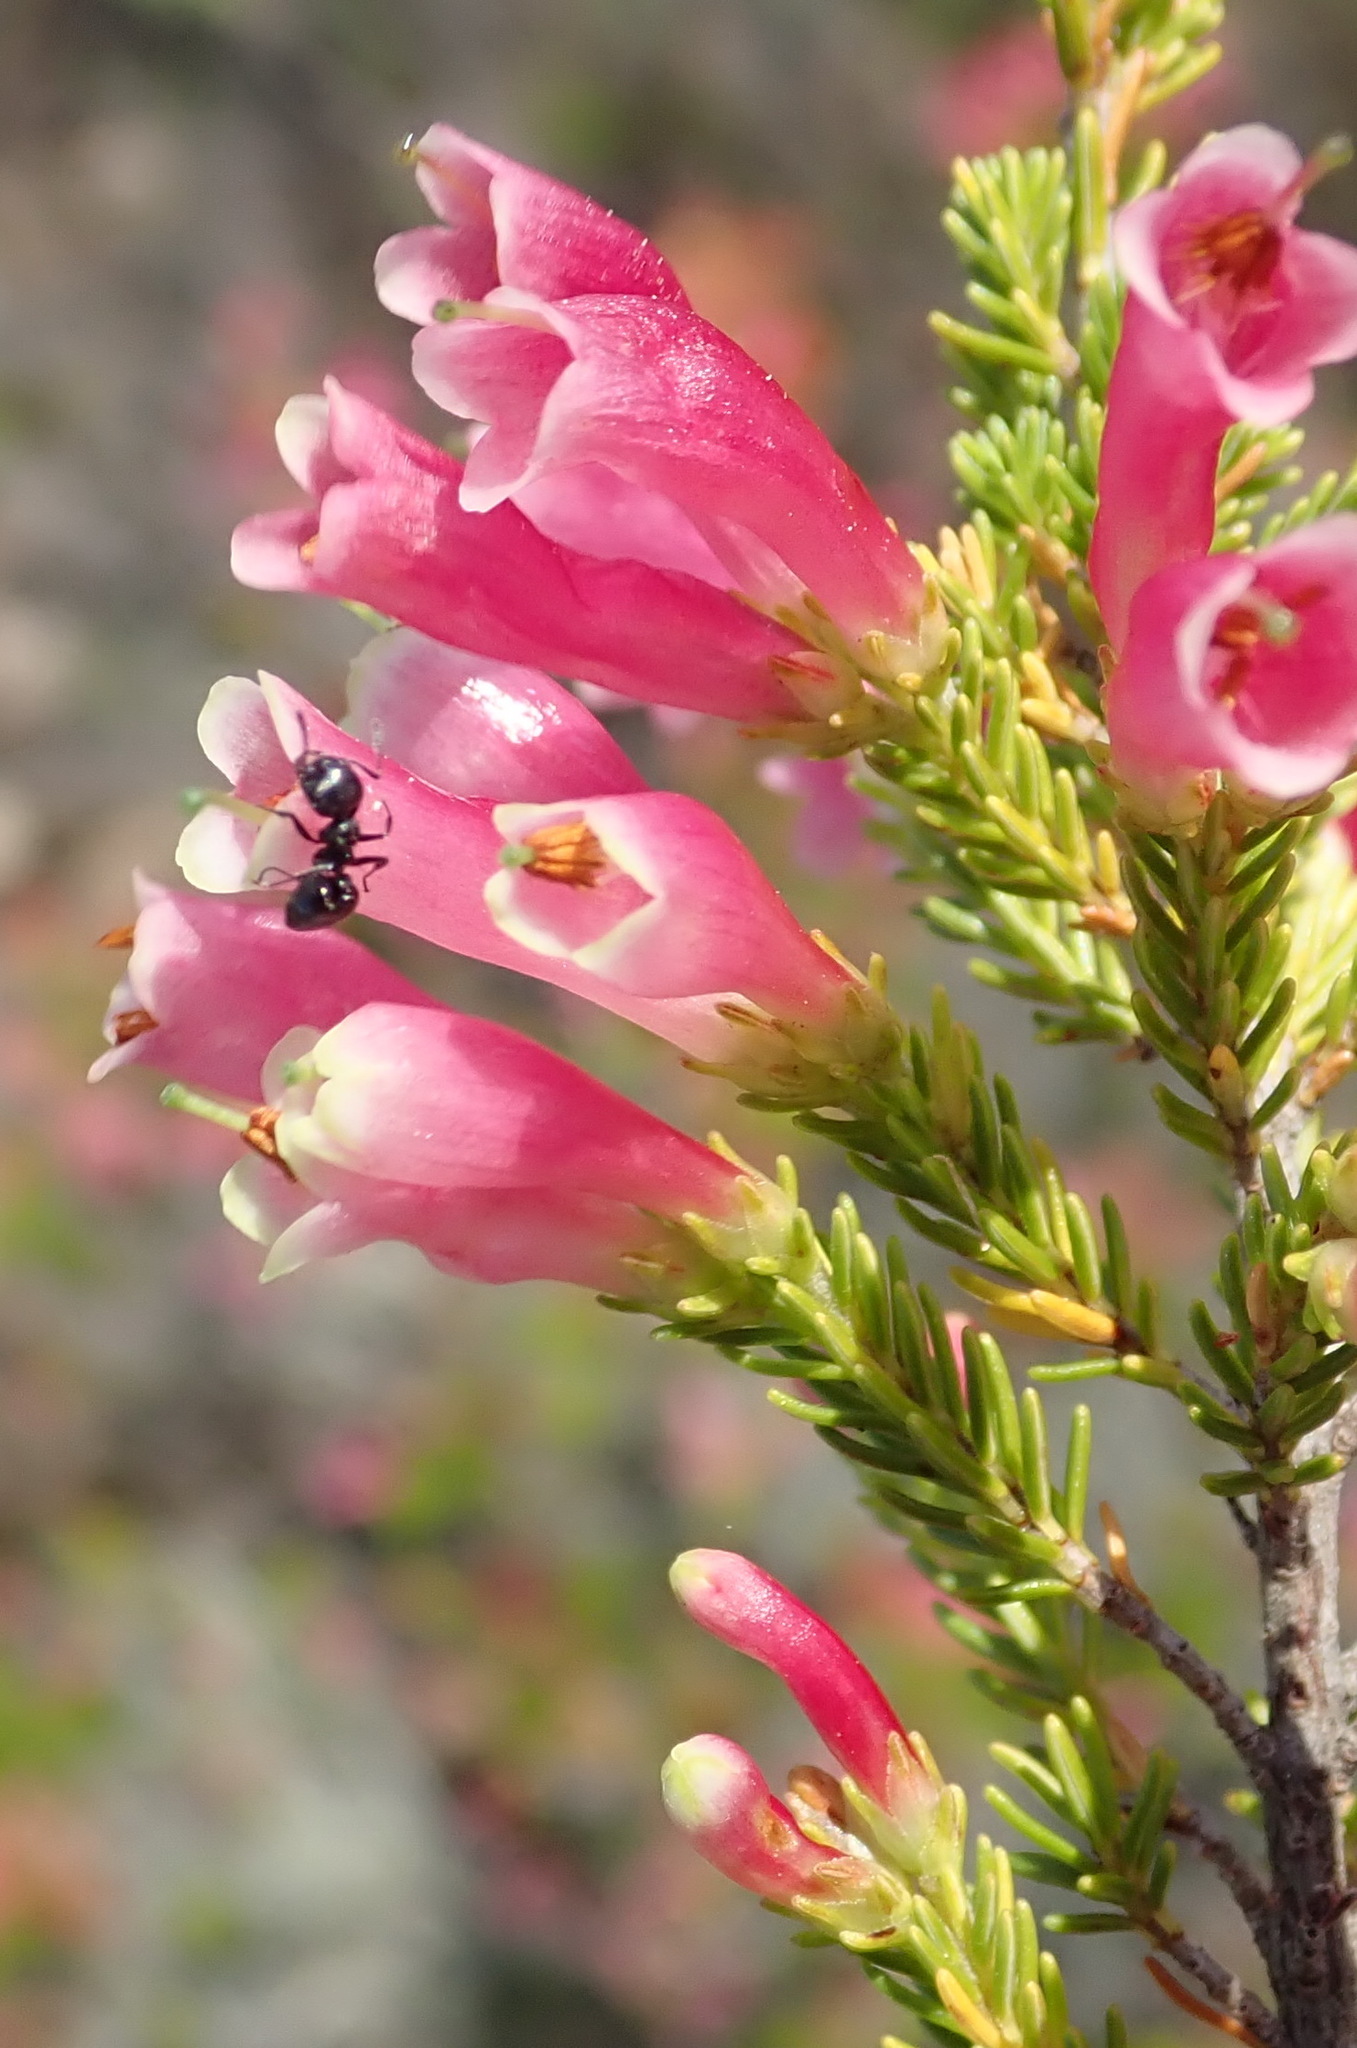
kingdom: Plantae
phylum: Tracheophyta
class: Magnoliopsida
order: Ericales
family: Ericaceae
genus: Erica
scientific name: Erica discolor
